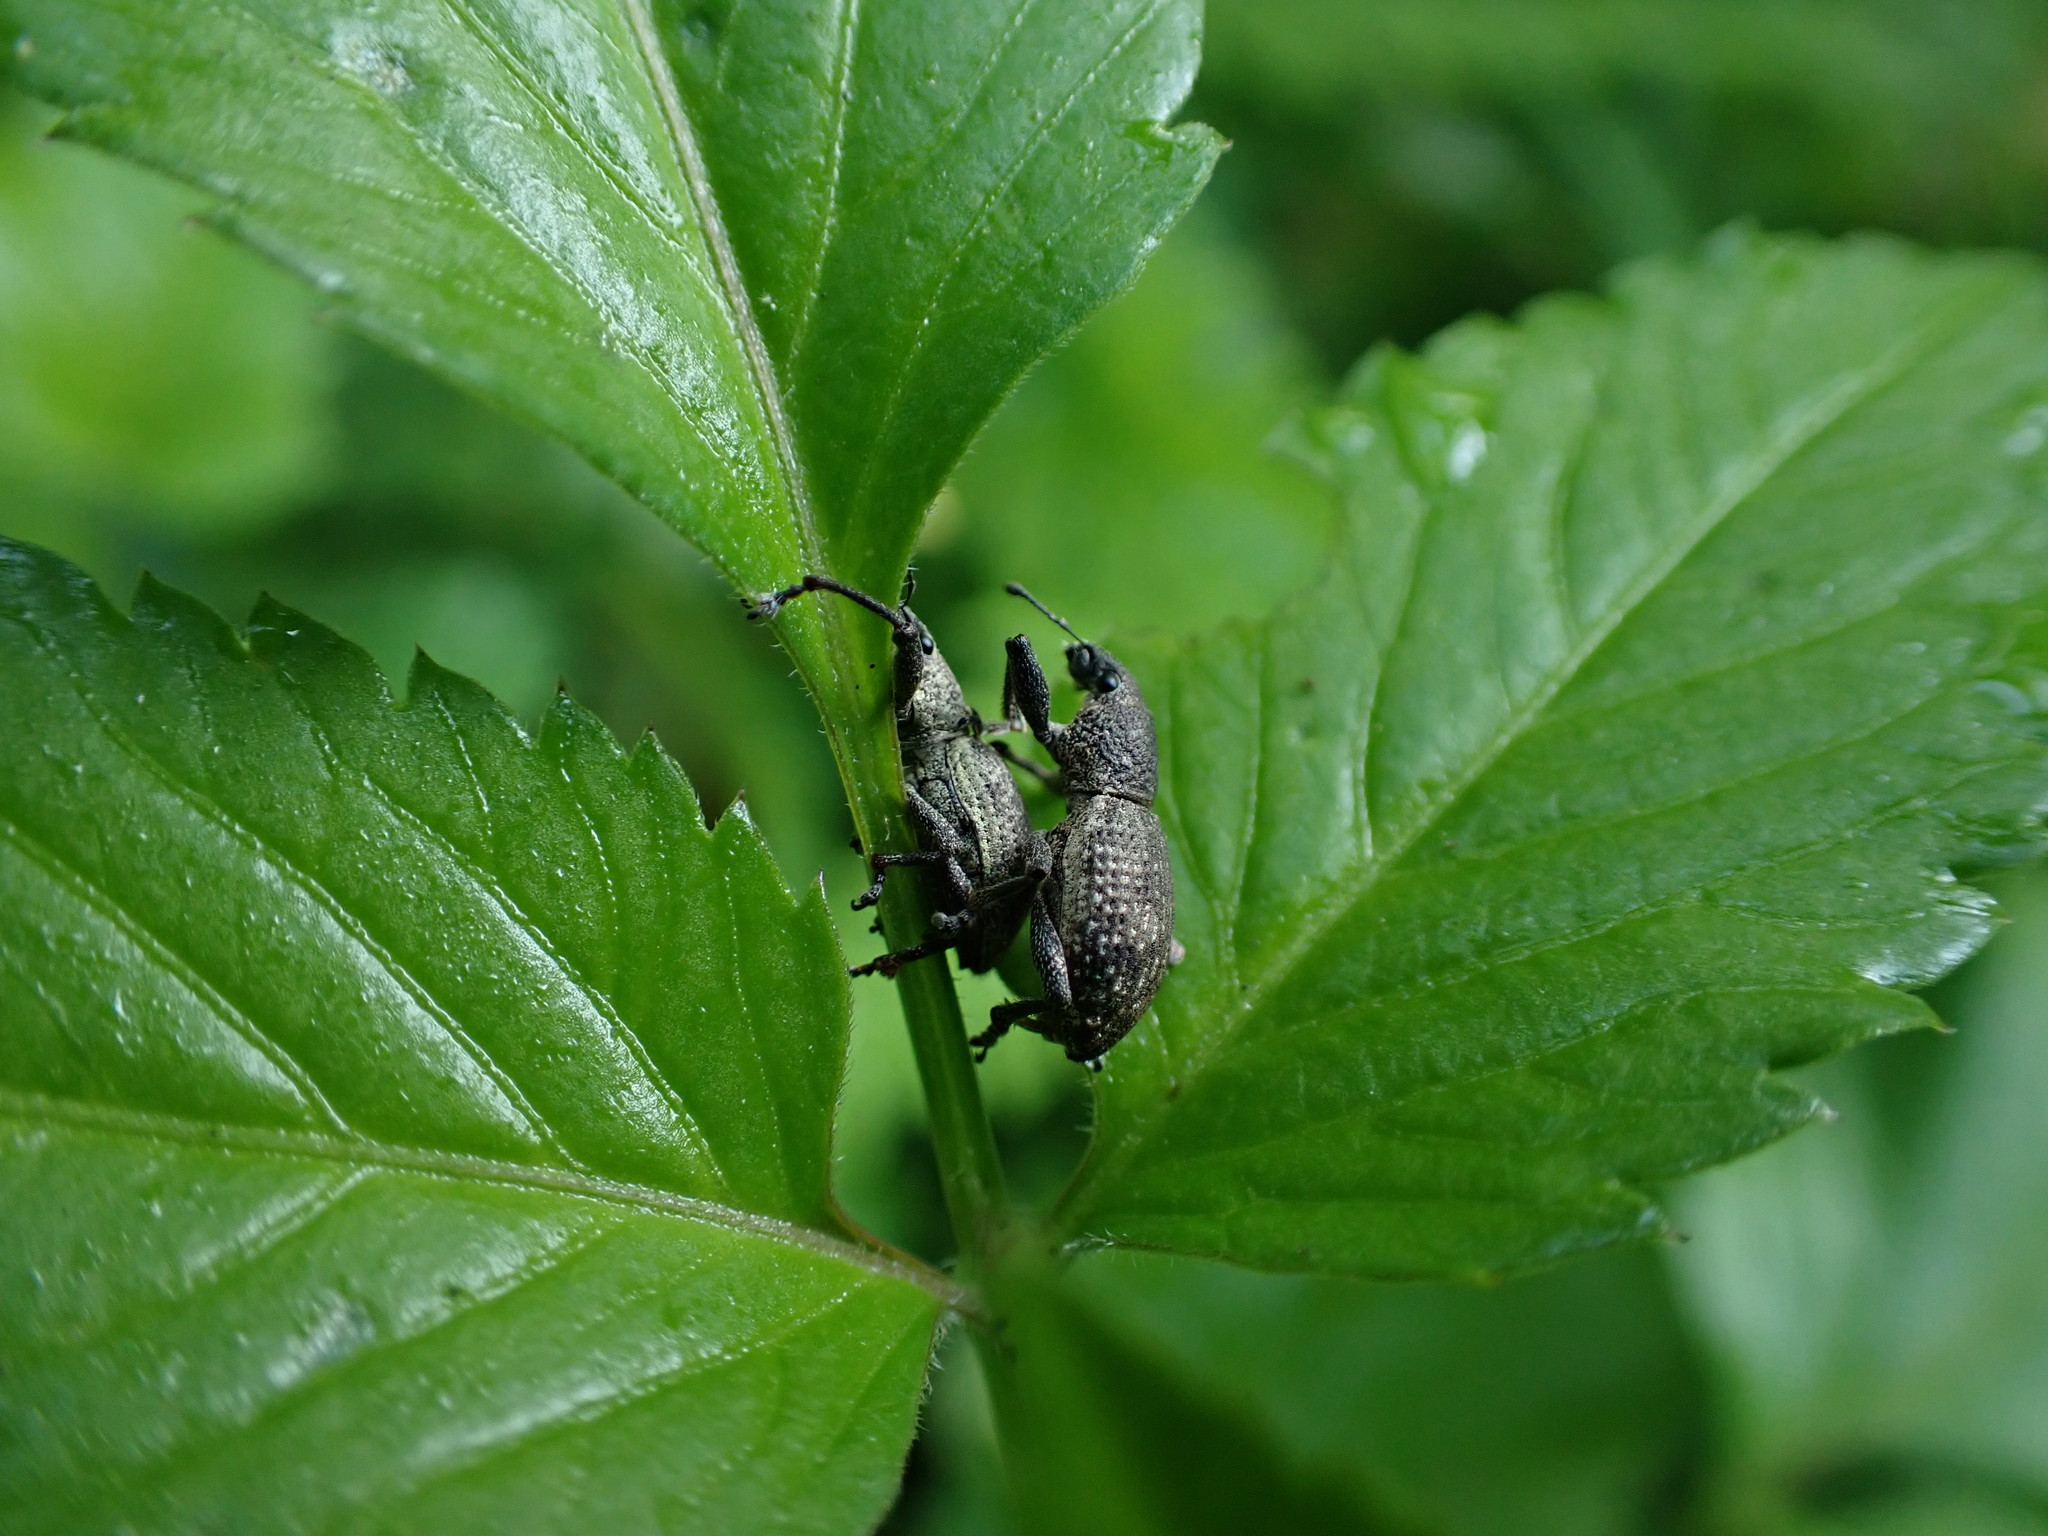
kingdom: Animalia
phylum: Arthropoda
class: Insecta
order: Coleoptera
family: Curculionidae
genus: Sympiezomias
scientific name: Sympiezomias cribricollis
